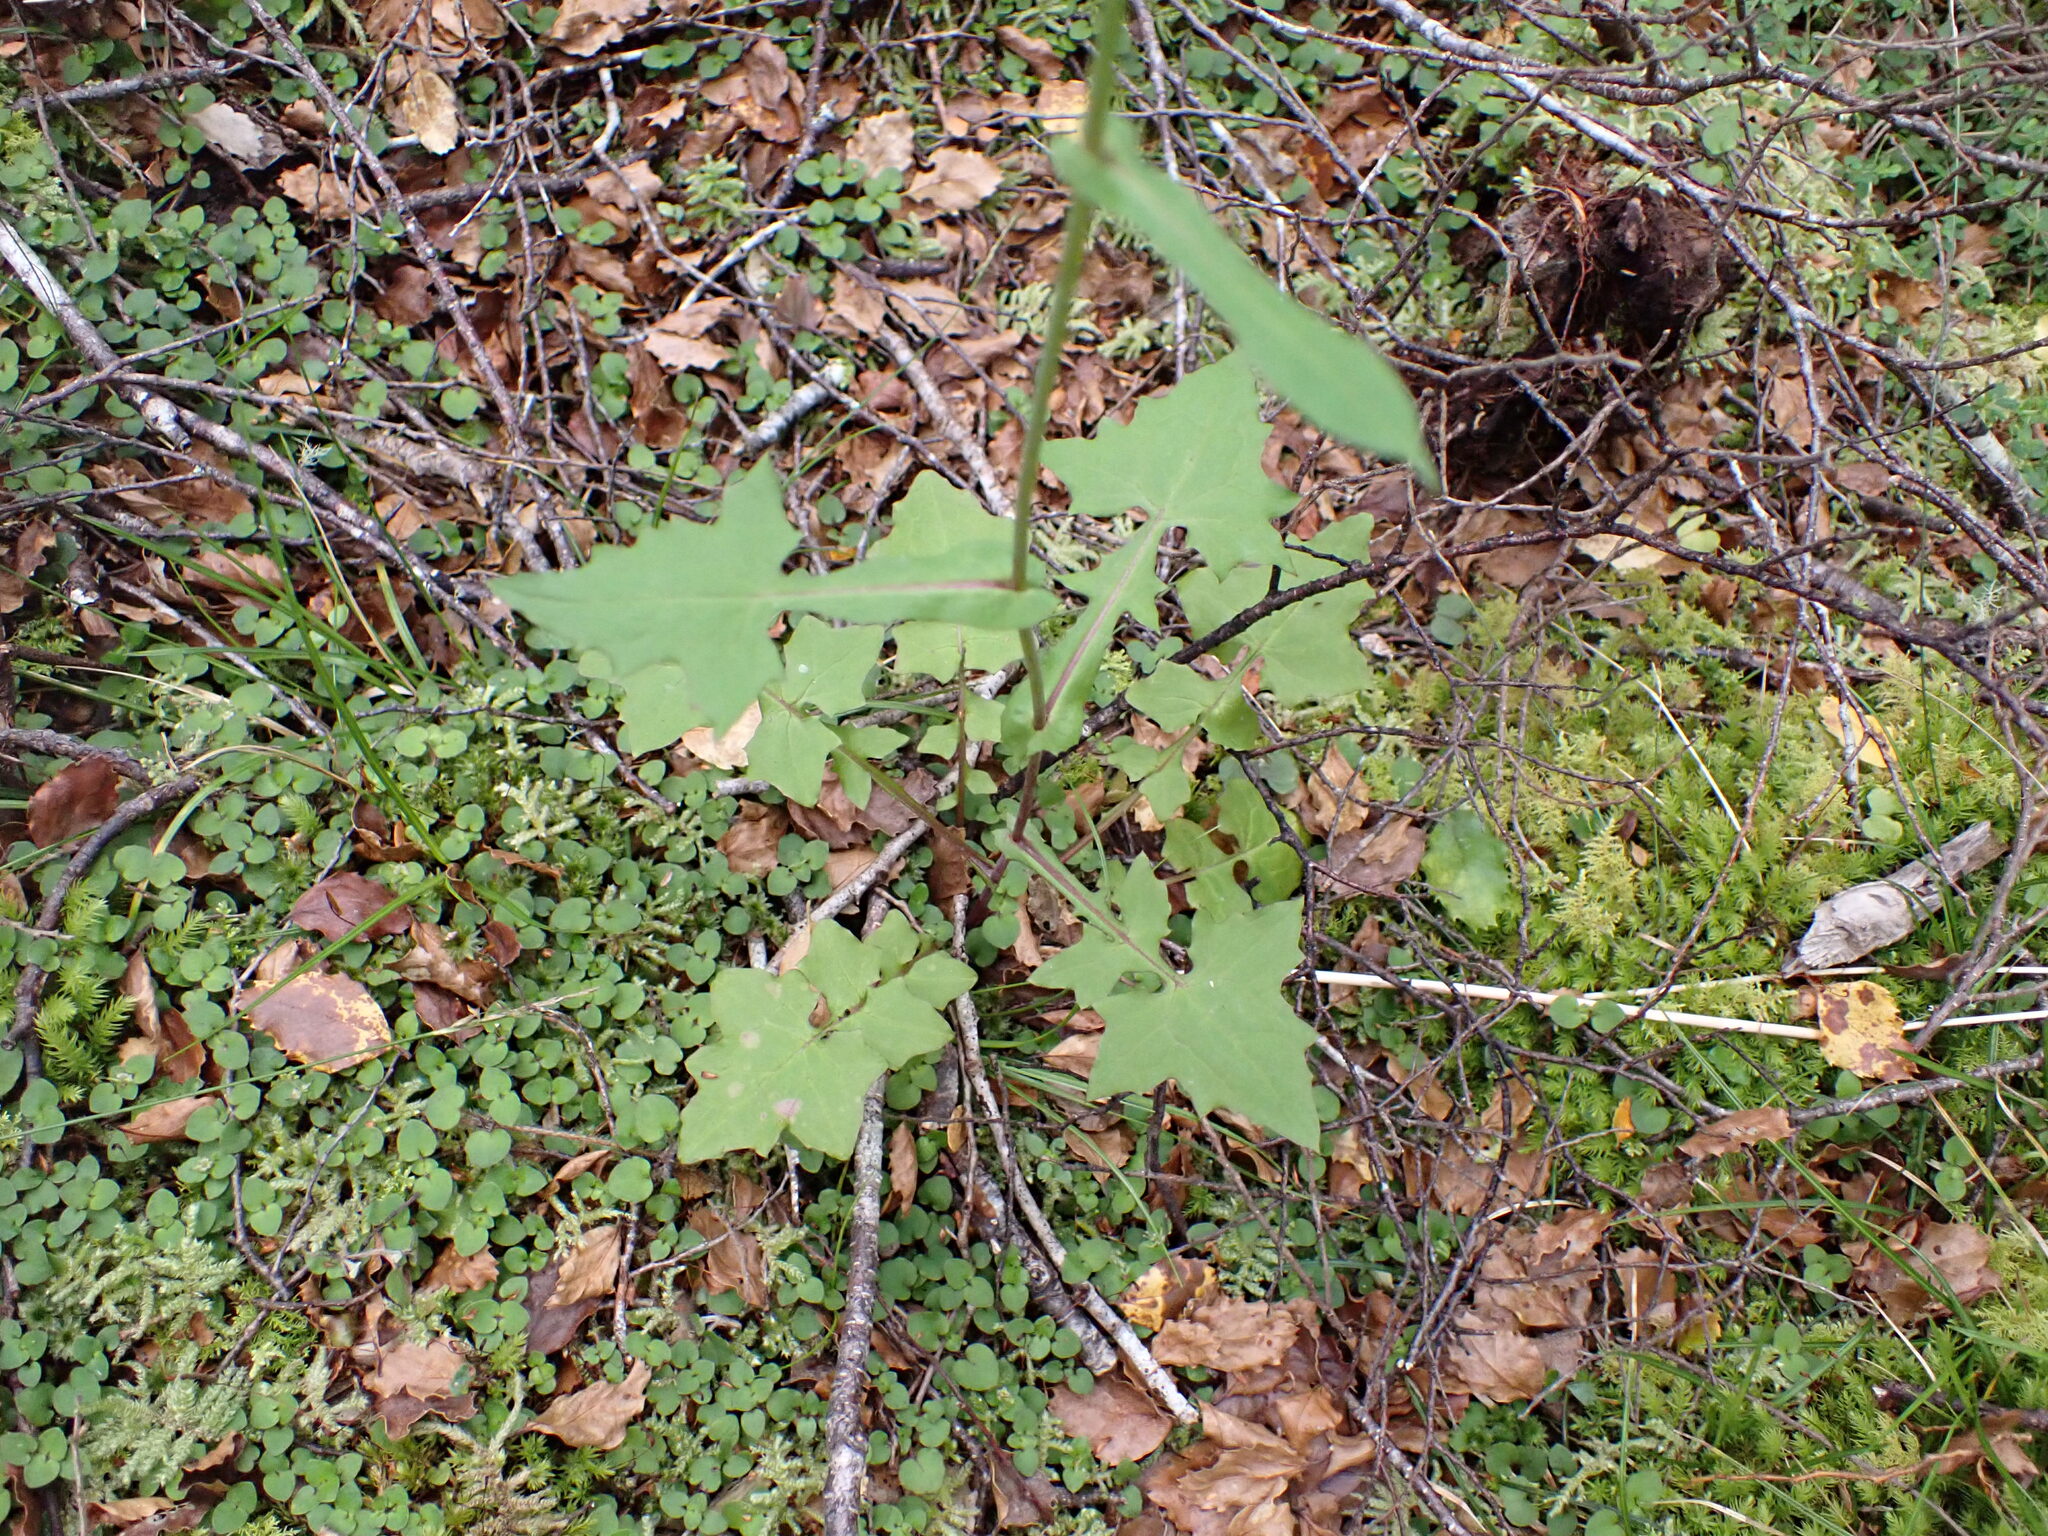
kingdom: Plantae
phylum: Tracheophyta
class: Magnoliopsida
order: Asterales
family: Asteraceae
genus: Mycelis
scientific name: Mycelis muralis
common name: Wall lettuce
